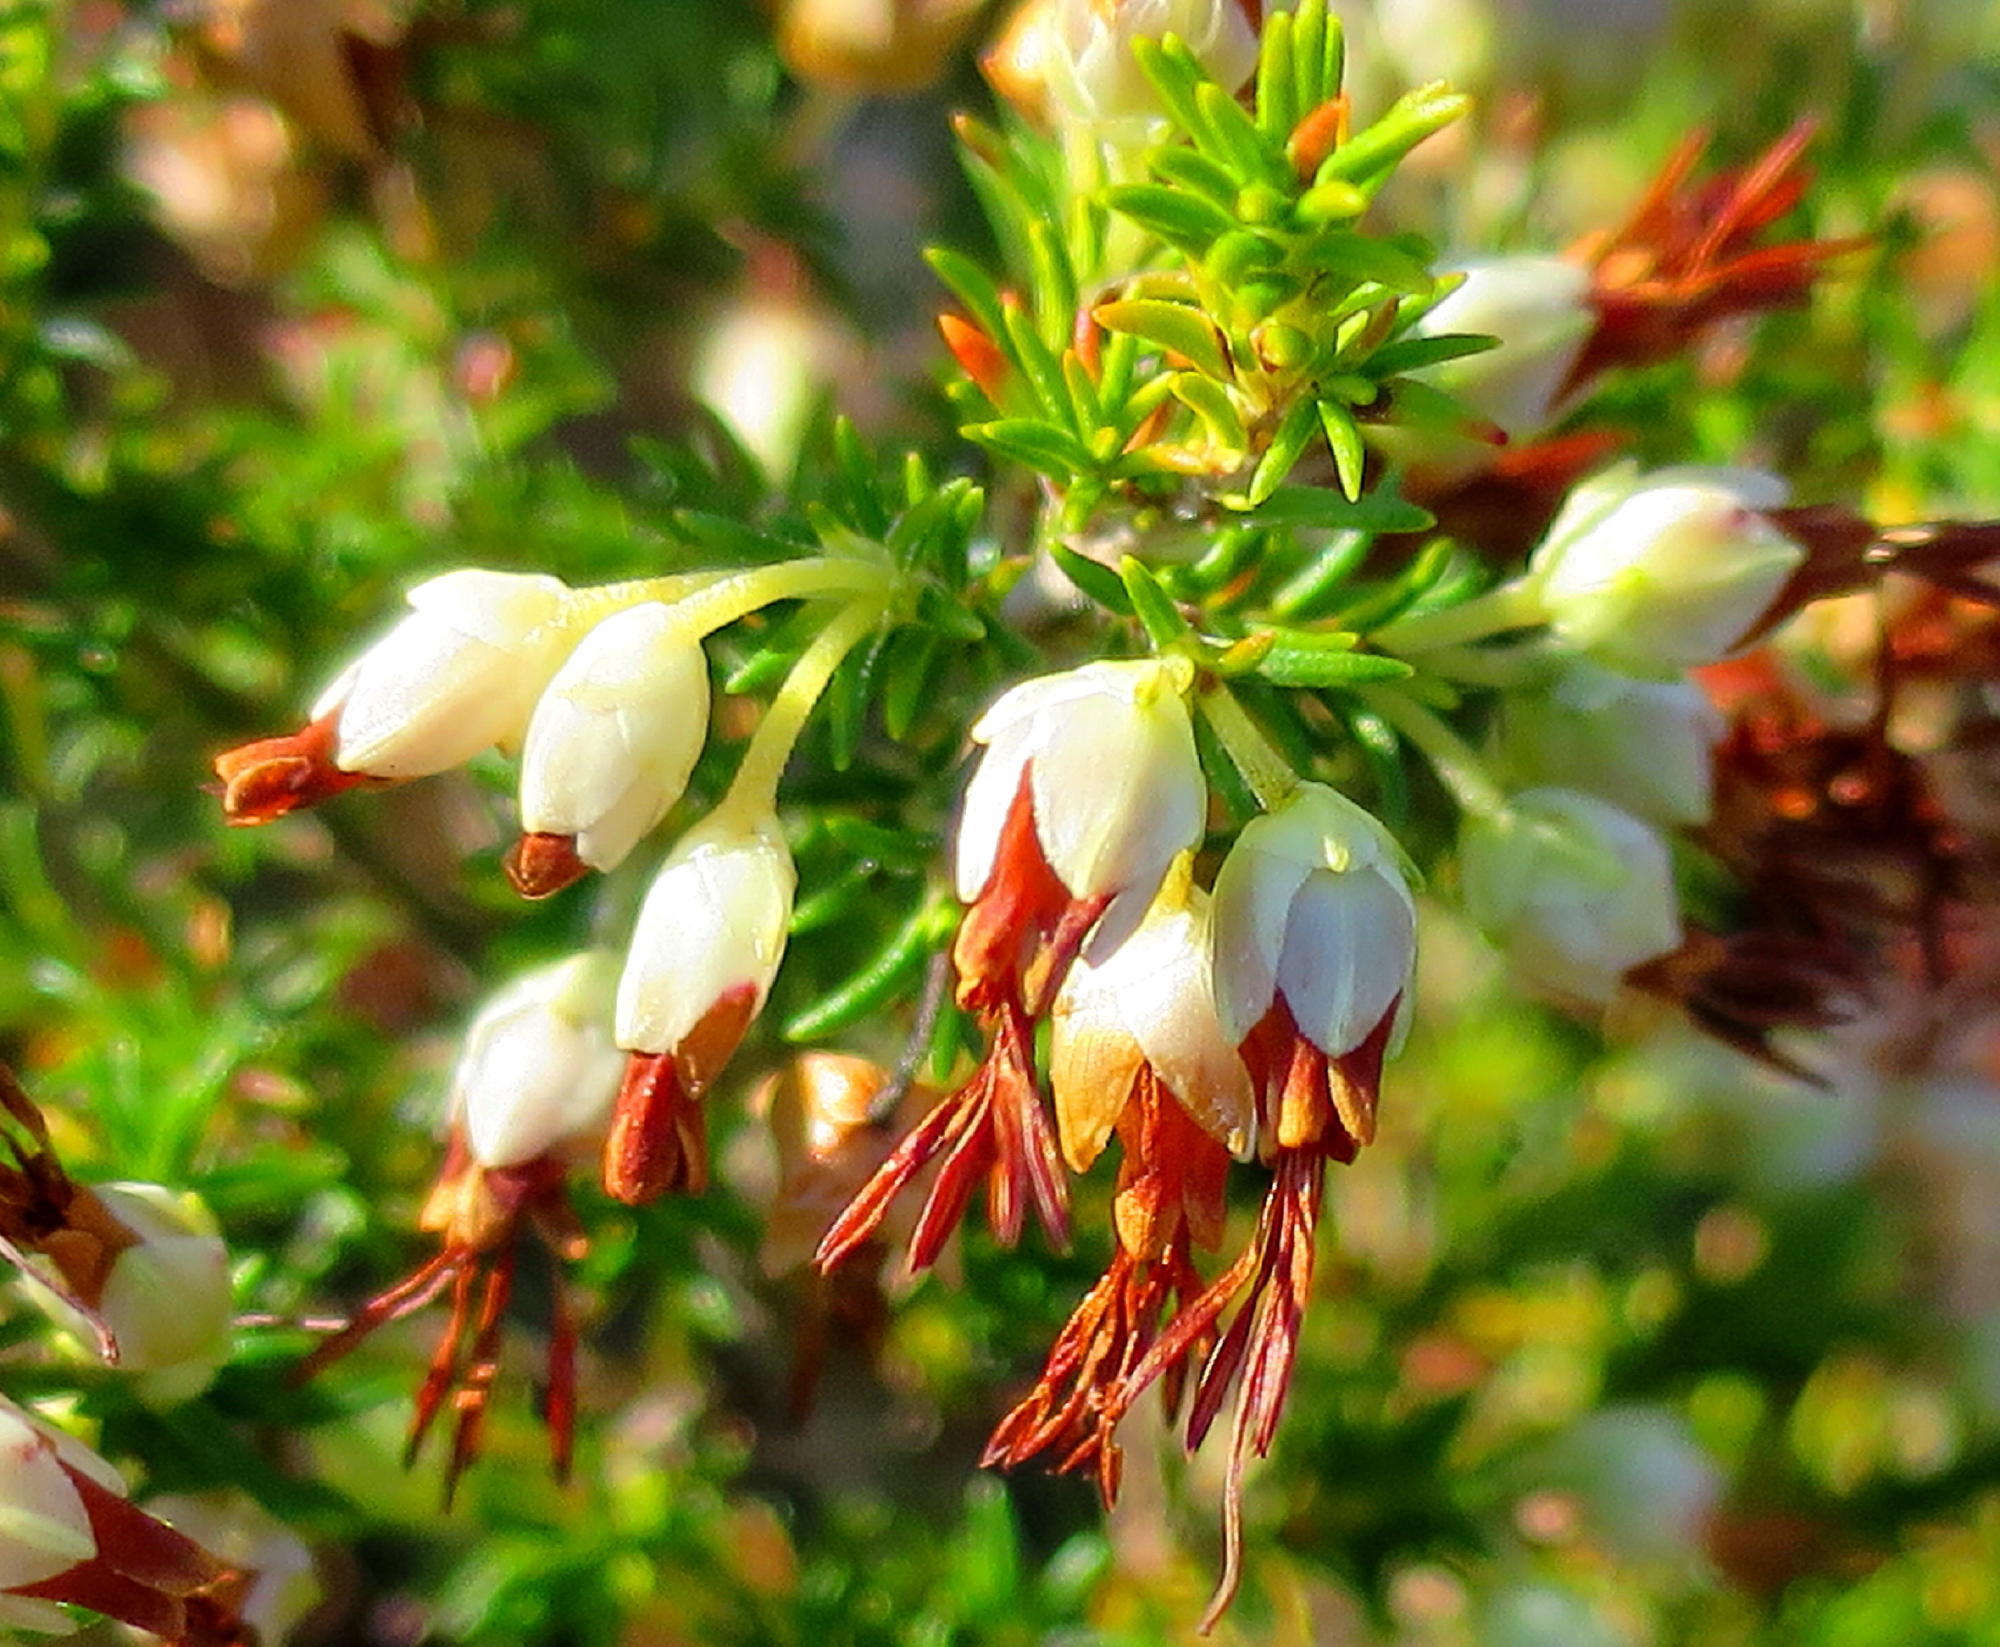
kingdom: Plantae
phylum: Tracheophyta
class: Magnoliopsida
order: Ericales
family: Ericaceae
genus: Erica
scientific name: Erica intermedia
